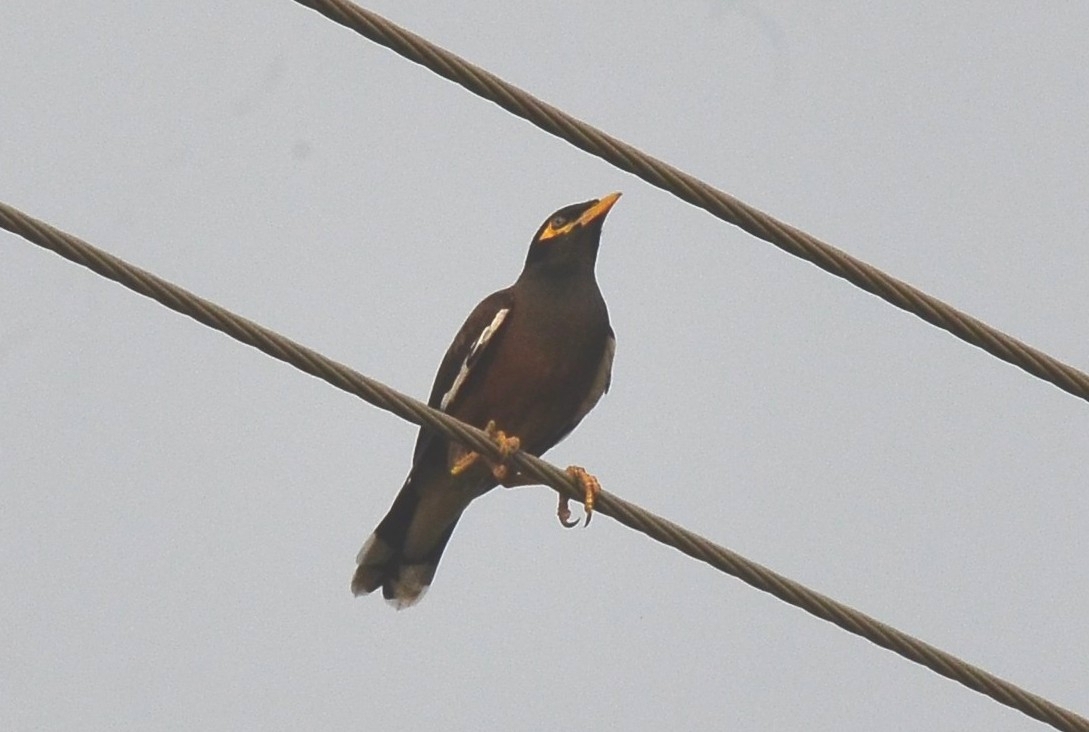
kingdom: Animalia
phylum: Chordata
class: Aves
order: Passeriformes
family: Sturnidae
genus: Acridotheres
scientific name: Acridotheres tristis
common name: Common myna
